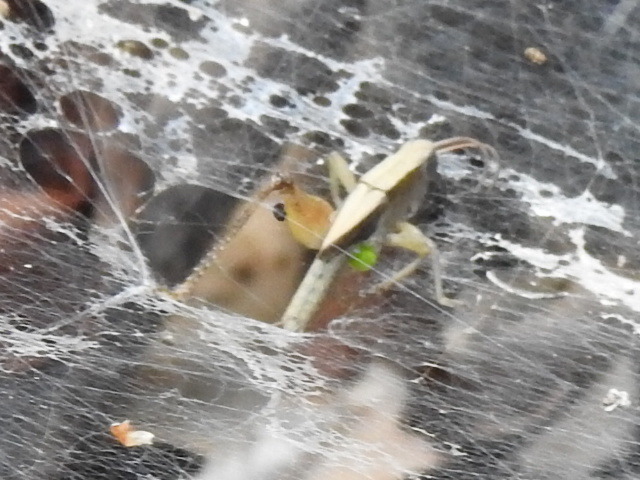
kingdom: Animalia
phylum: Arthropoda
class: Insecta
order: Orthoptera
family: Acrididae
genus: Dichromorpha
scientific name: Dichromorpha viridis
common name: Short-winged green grasshopper
